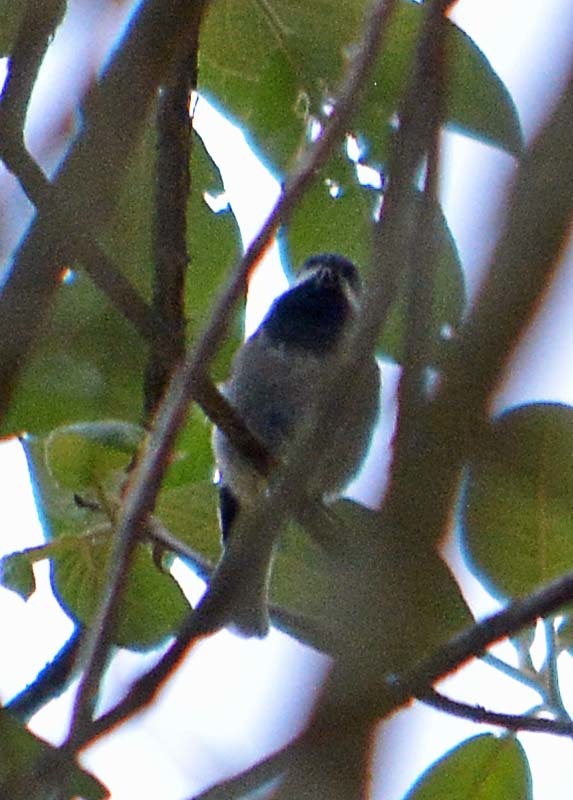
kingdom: Animalia
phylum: Chordata
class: Aves
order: Passeriformes
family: Paridae
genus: Poecile
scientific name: Poecile sclateri
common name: Mexican chickadee
